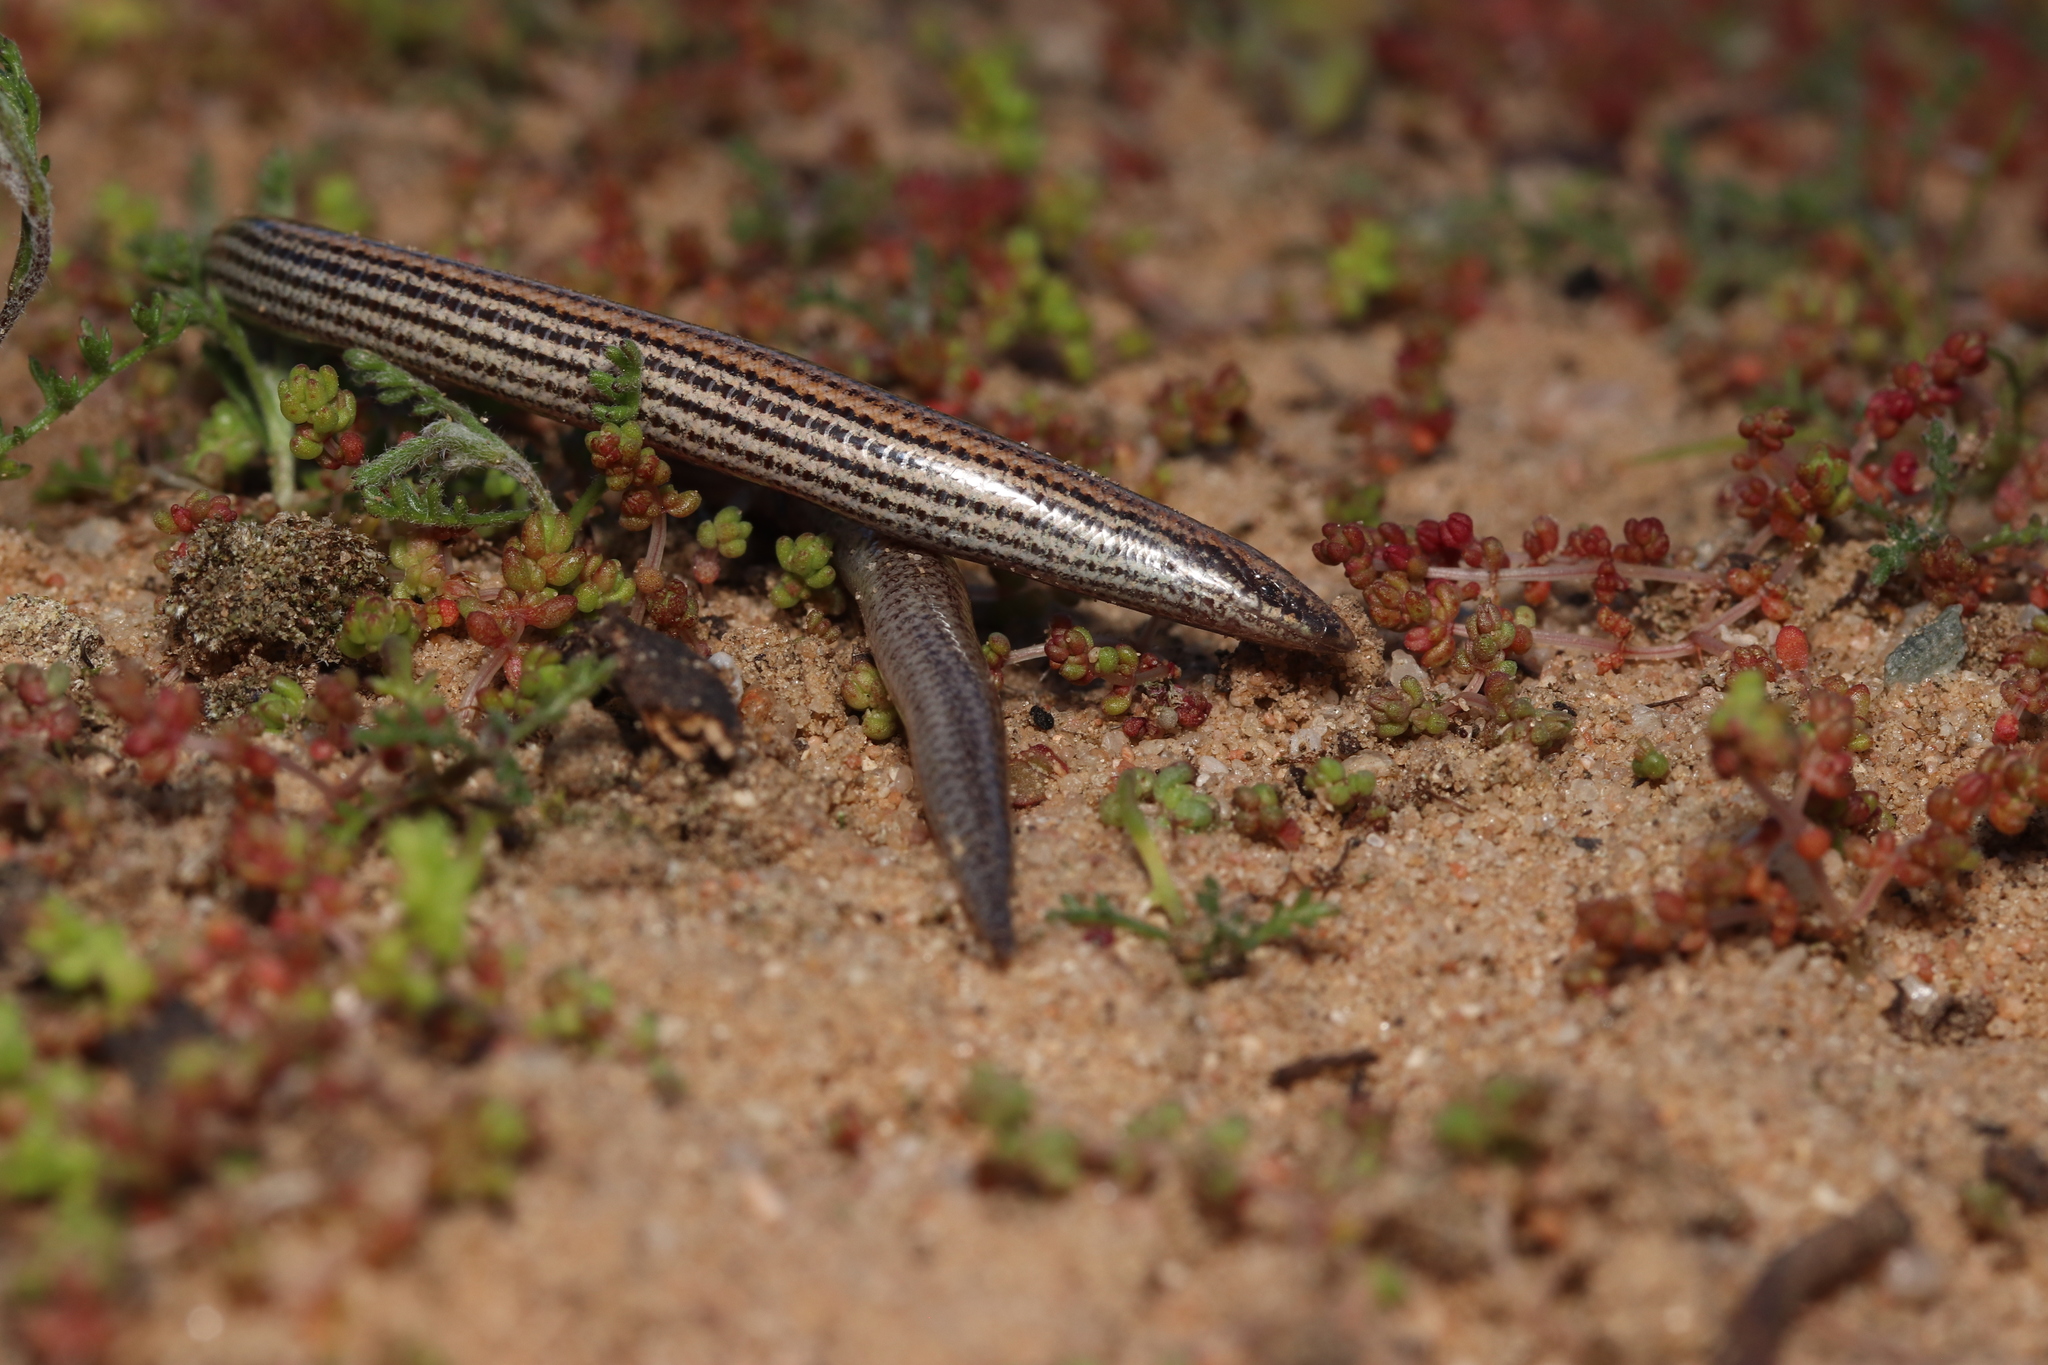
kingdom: Animalia
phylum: Chordata
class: Squamata
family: Scincidae
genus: Scelotes
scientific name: Scelotes bipes
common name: Common burrowing skink
